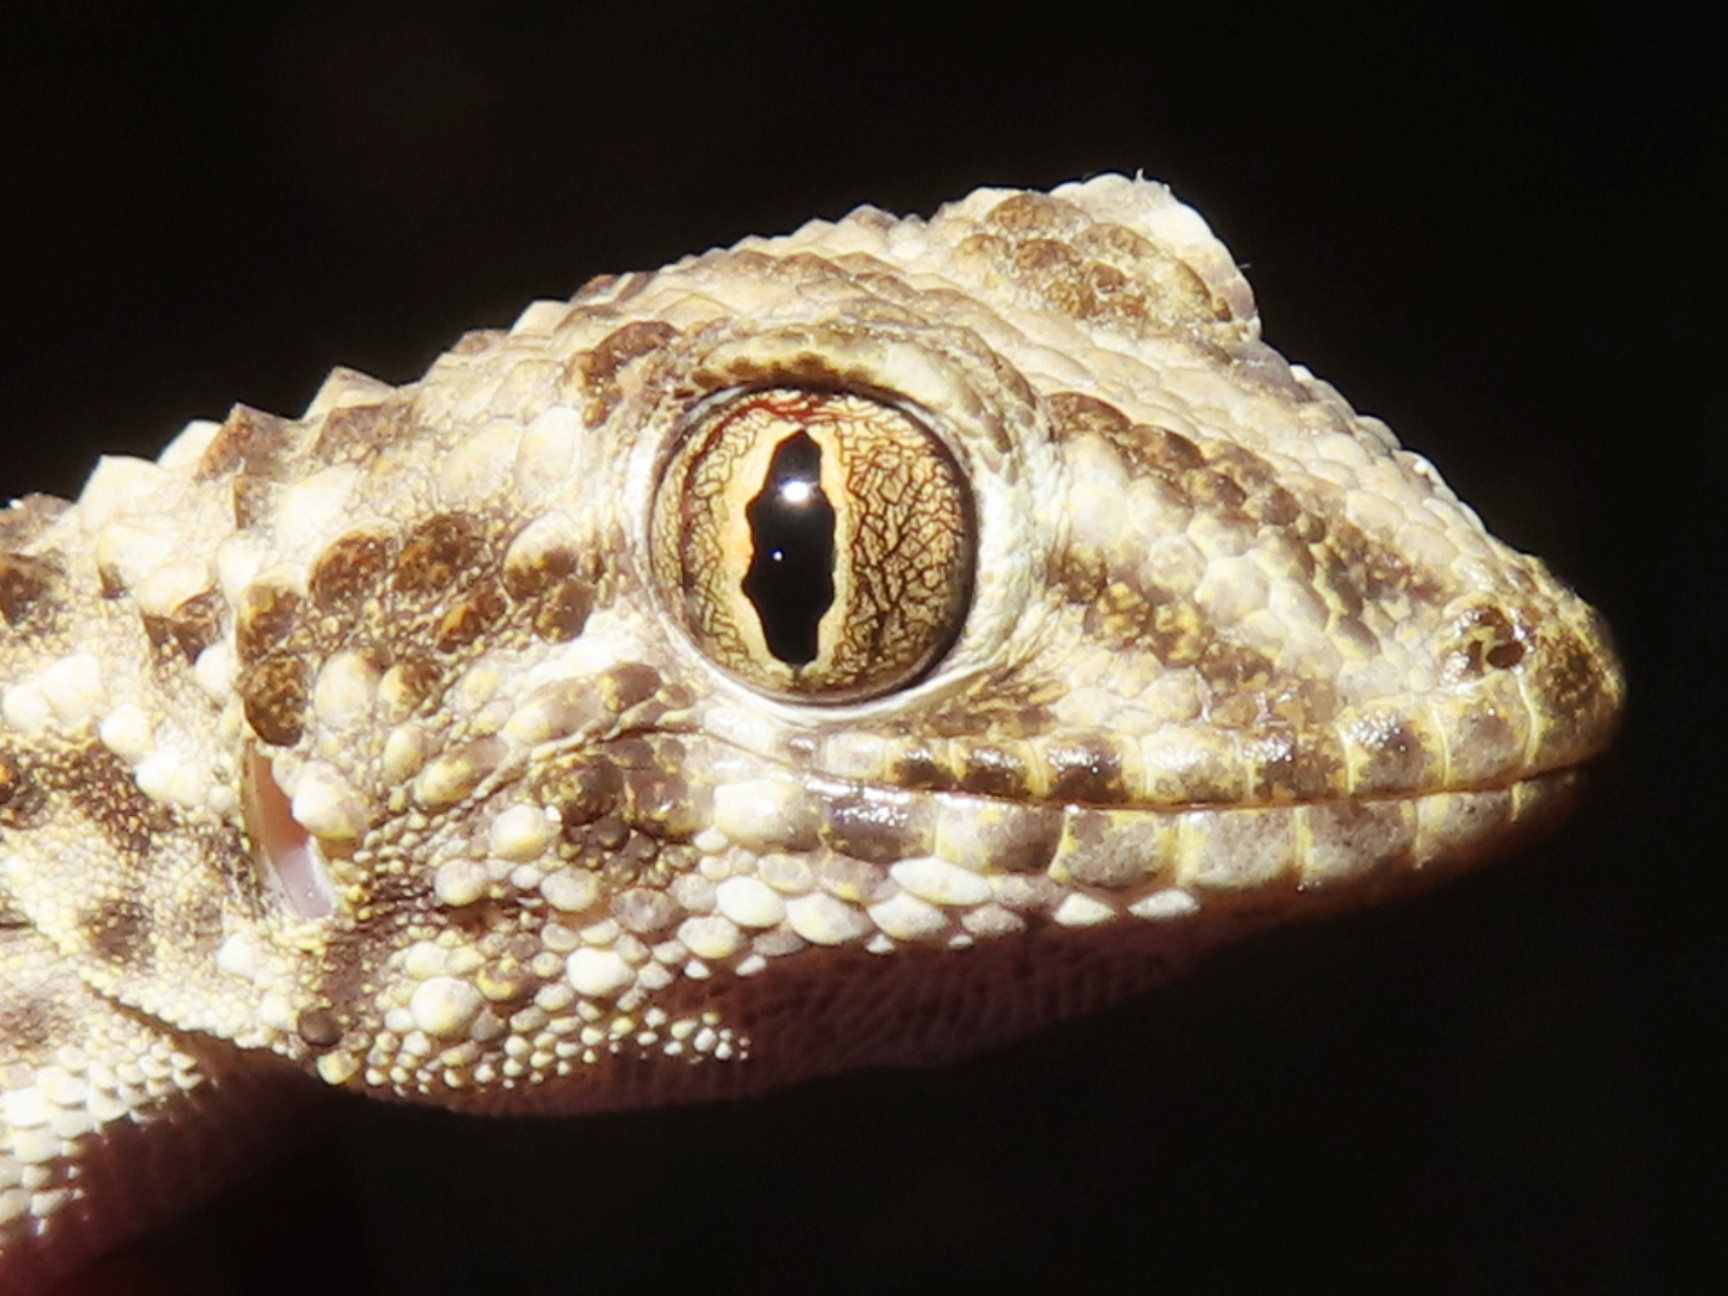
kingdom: Animalia
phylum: Chordata
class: Squamata
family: Gekkonidae
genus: Tenuidactylus
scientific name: Tenuidactylus caspius
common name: Caspian bent-toed gecko
